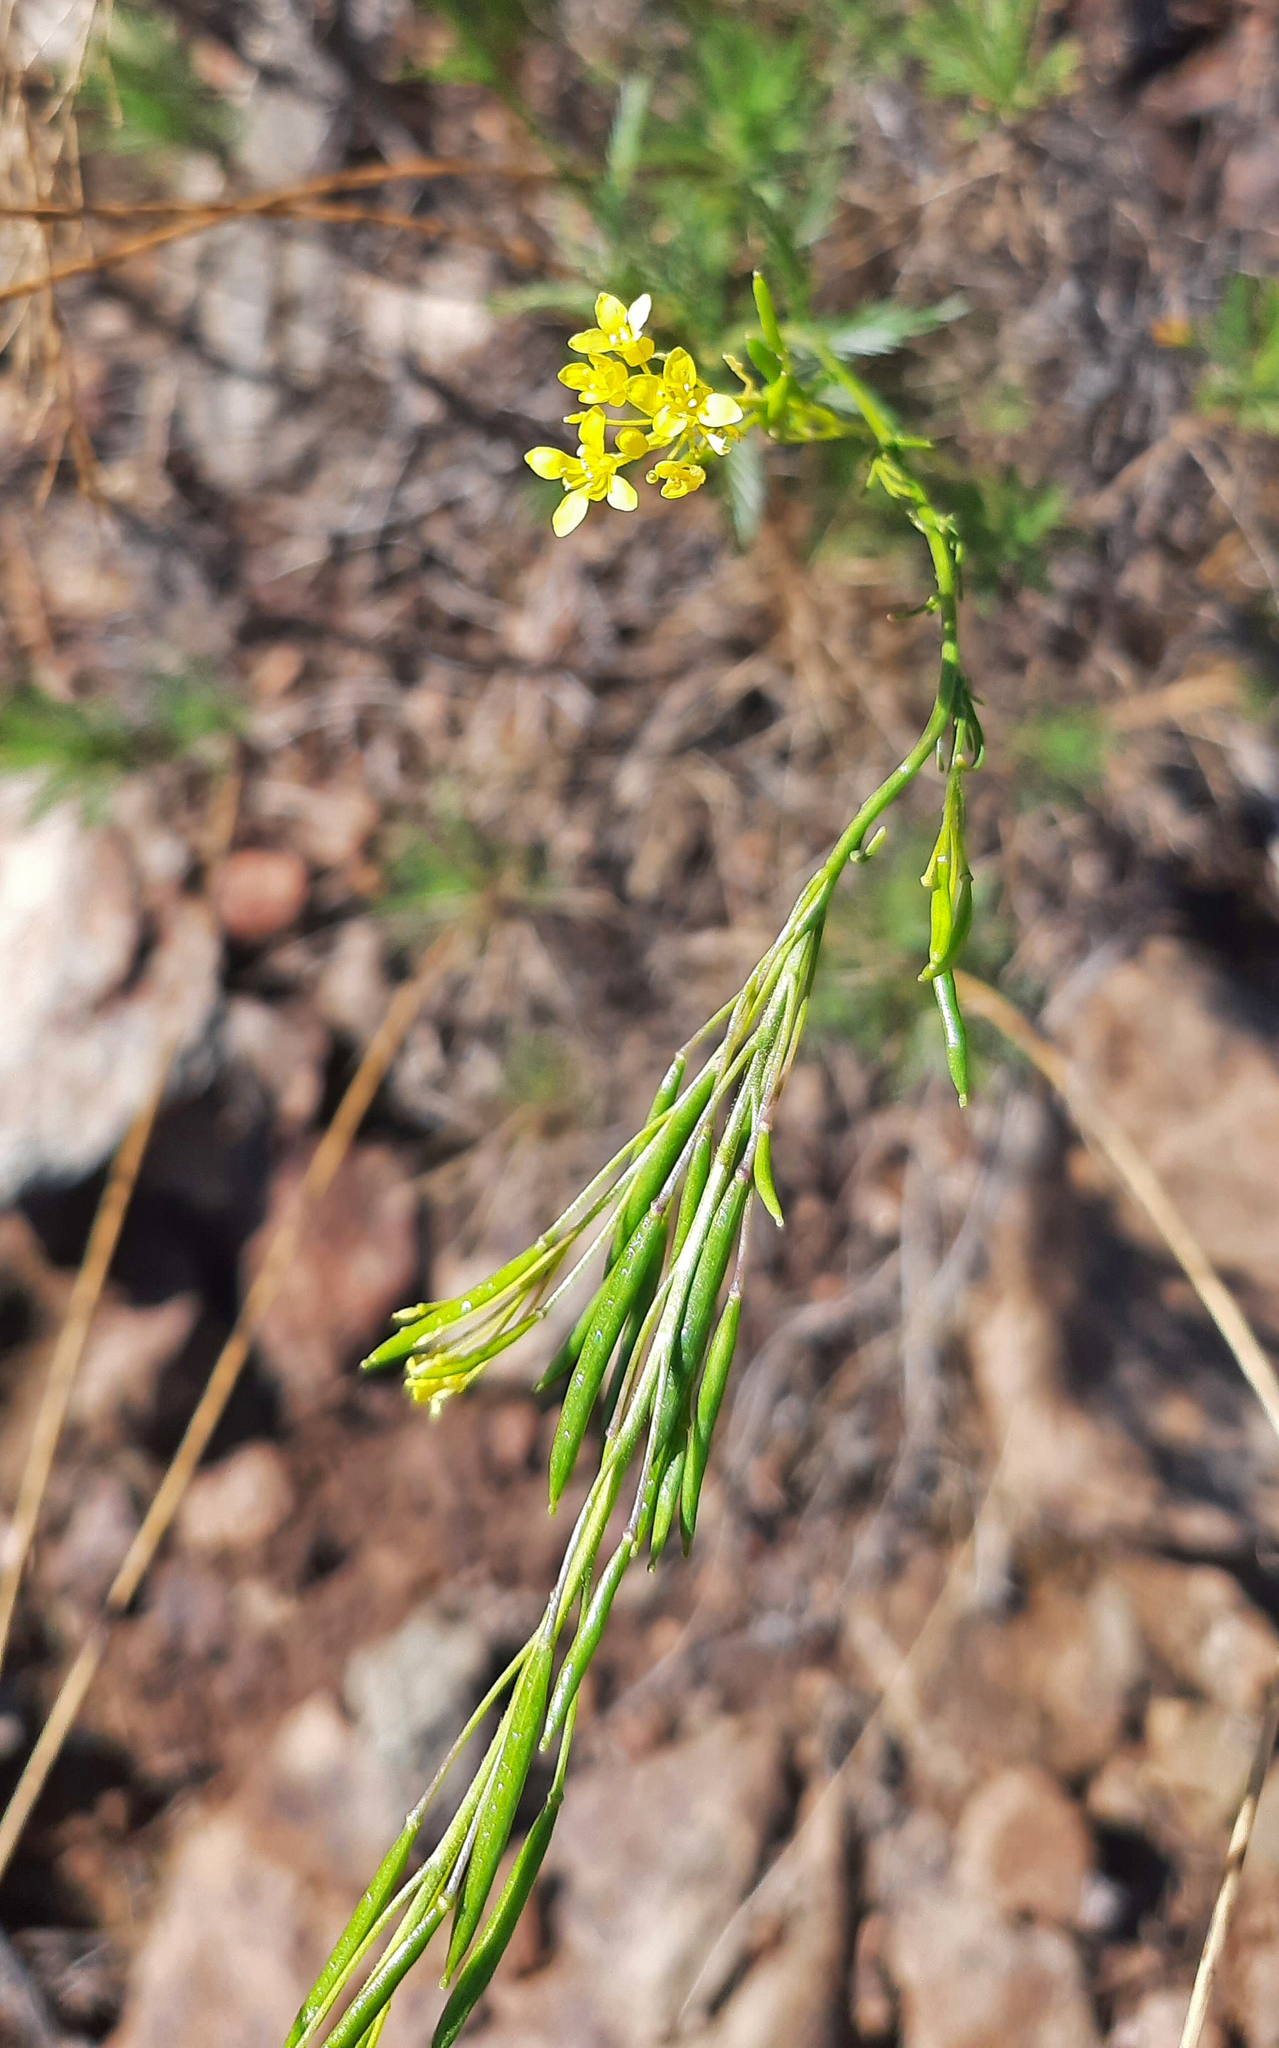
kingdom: Plantae
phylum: Tracheophyta
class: Magnoliopsida
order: Brassicales
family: Brassicaceae
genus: Descurainia
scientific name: Descurainia preauxiana
